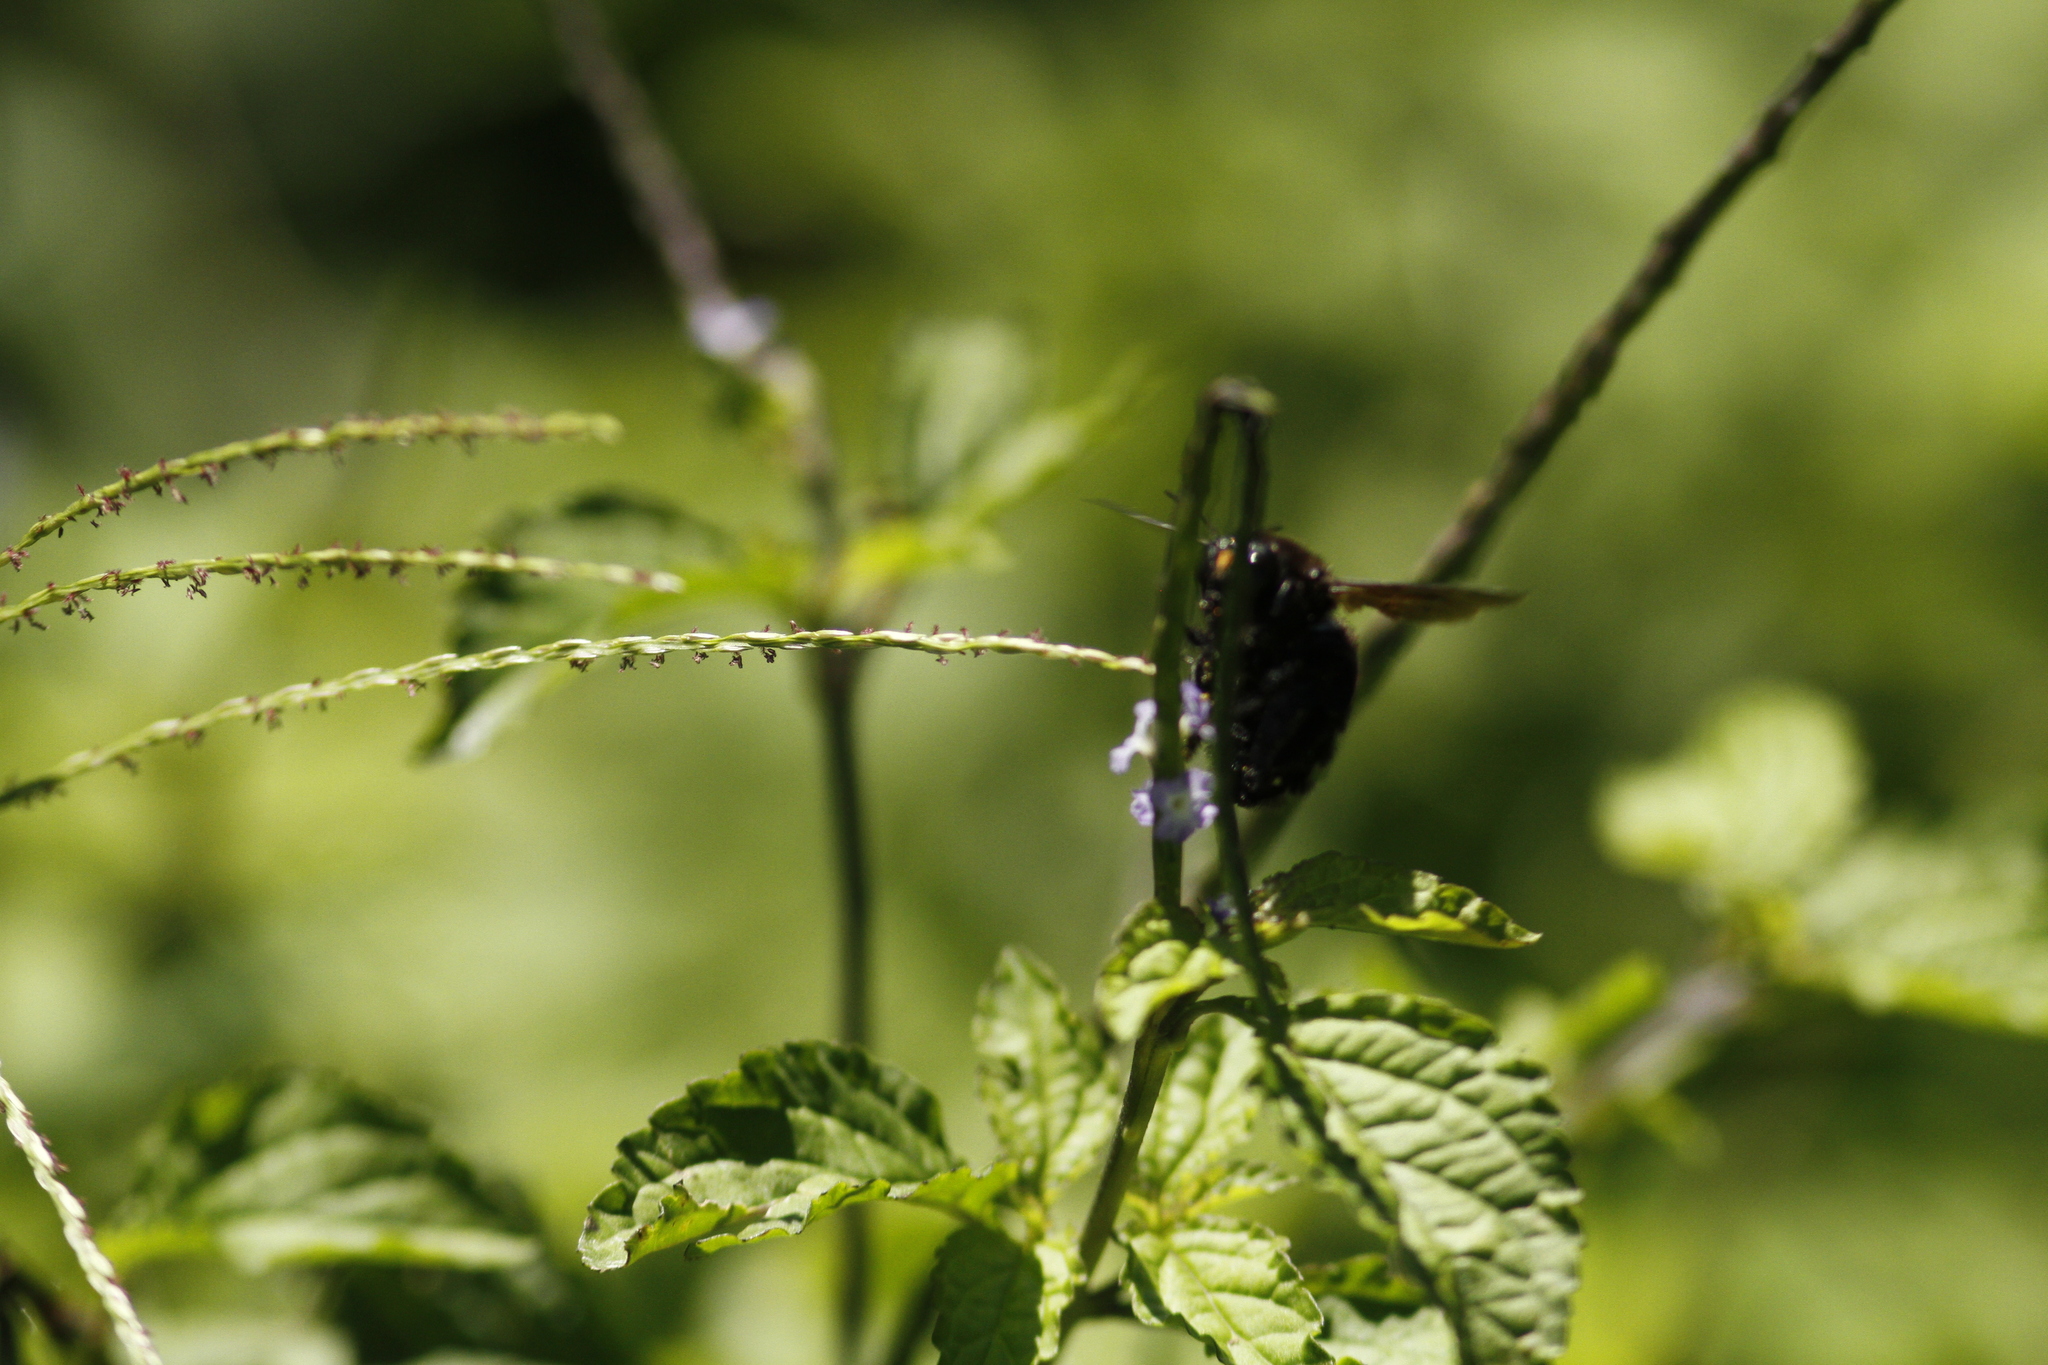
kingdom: Animalia
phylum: Arthropoda
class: Insecta
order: Hymenoptera
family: Apidae
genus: Xylocopa
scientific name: Xylocopa darwini
